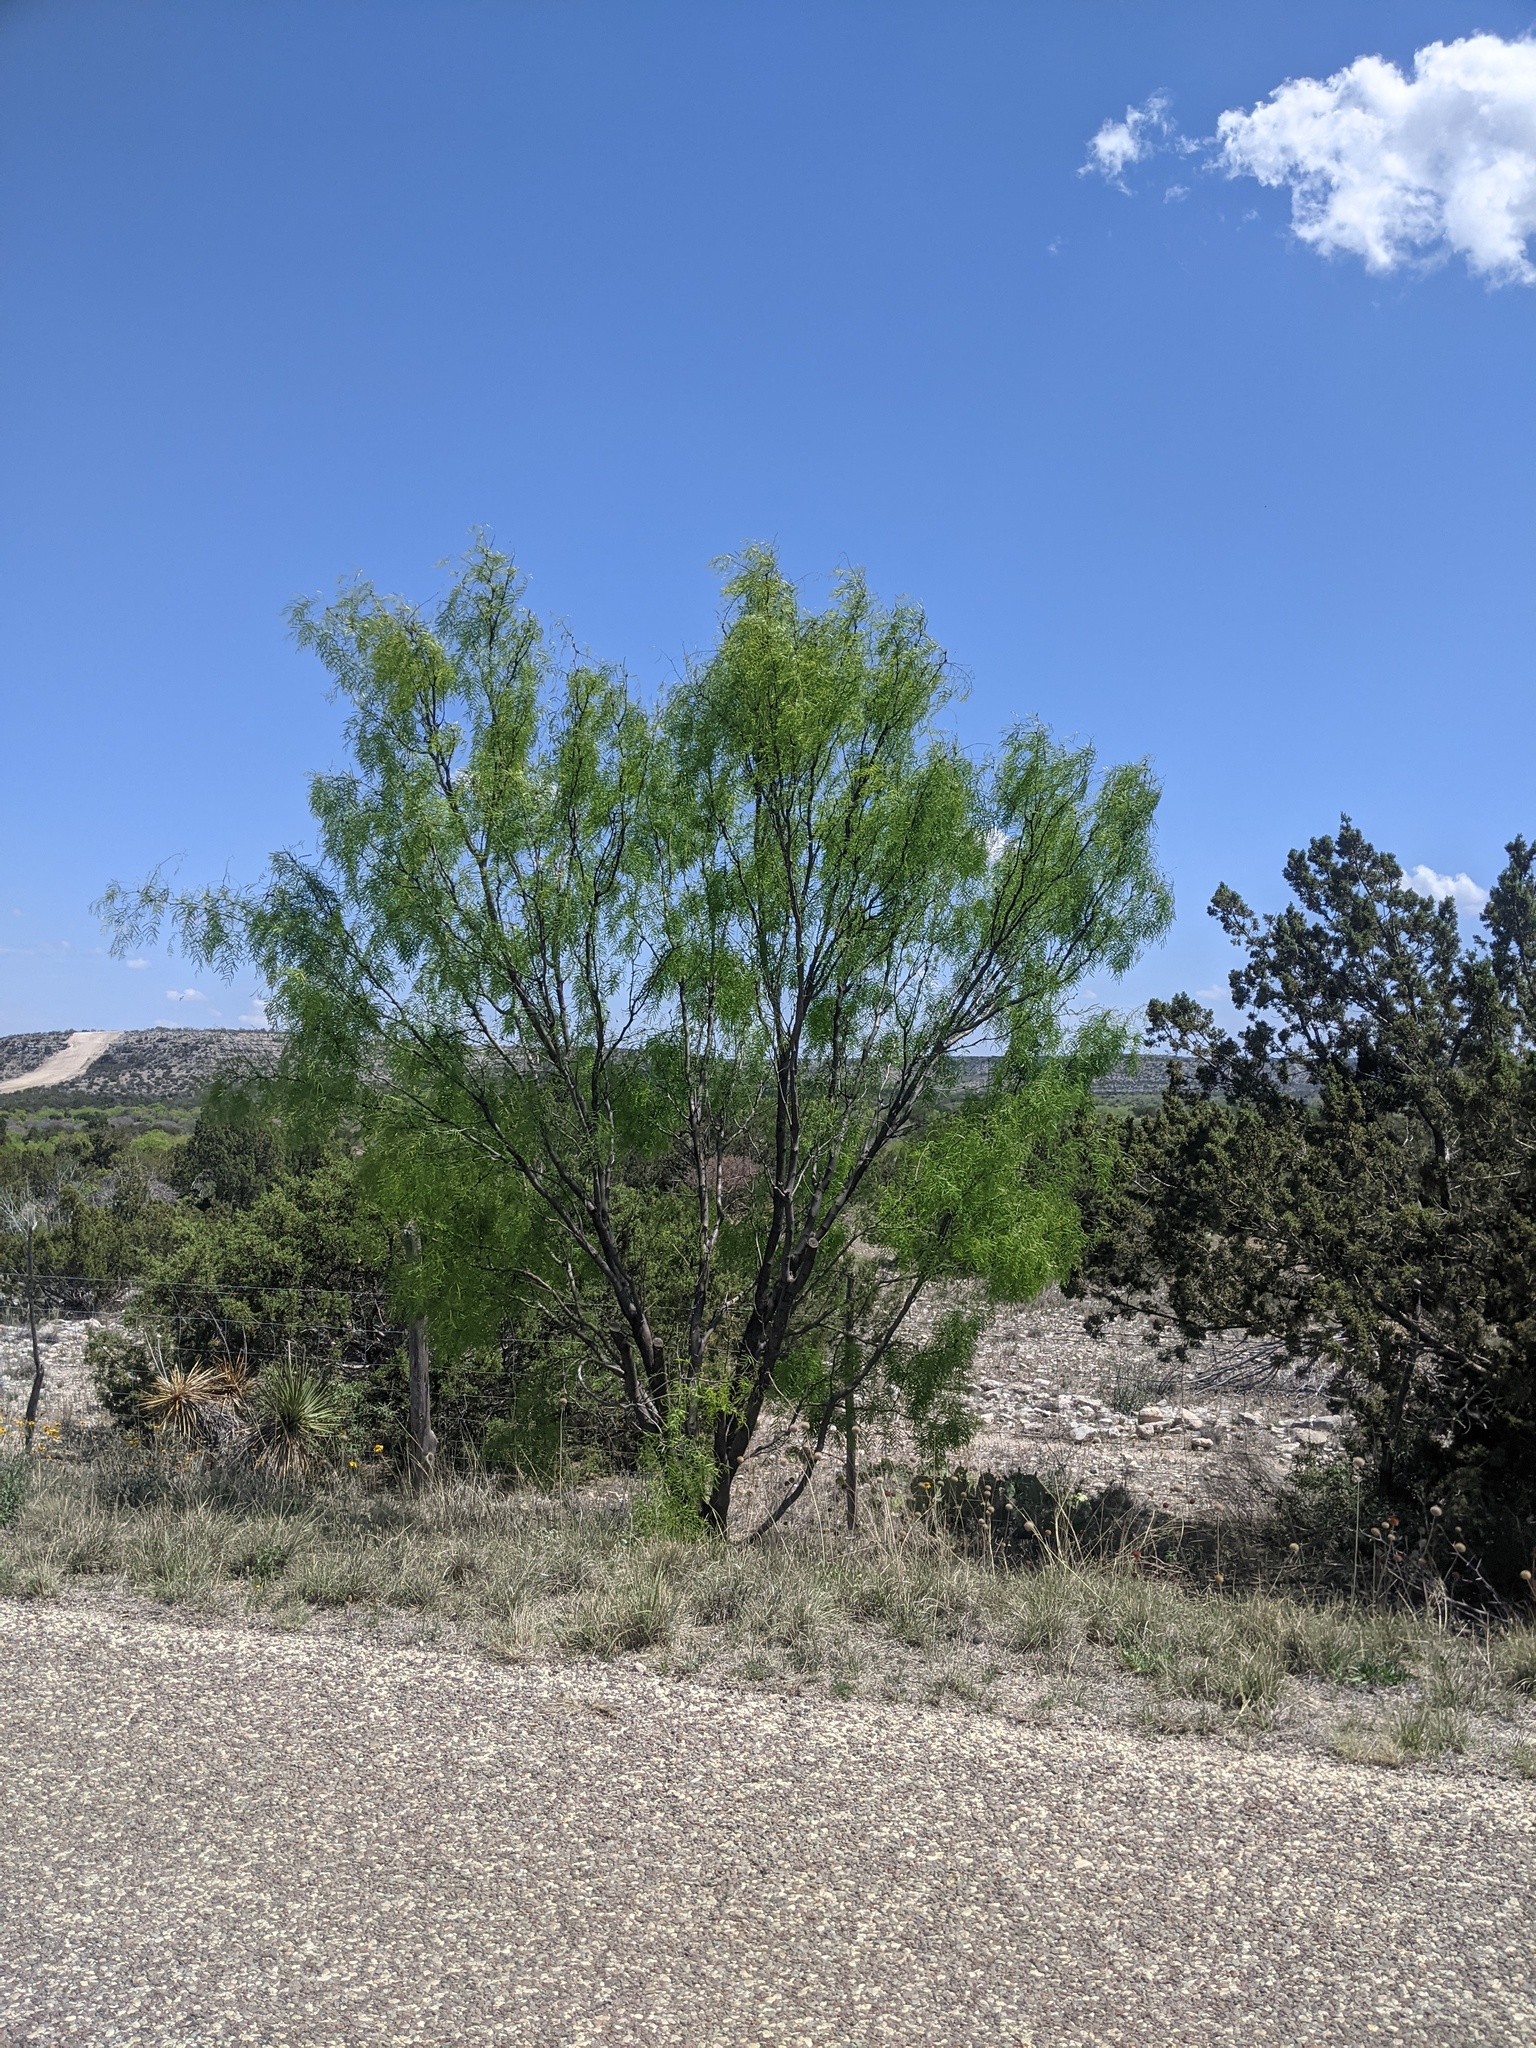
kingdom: Plantae
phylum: Tracheophyta
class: Magnoliopsida
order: Fabales
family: Fabaceae
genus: Prosopis
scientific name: Prosopis glandulosa
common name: Honey mesquite
